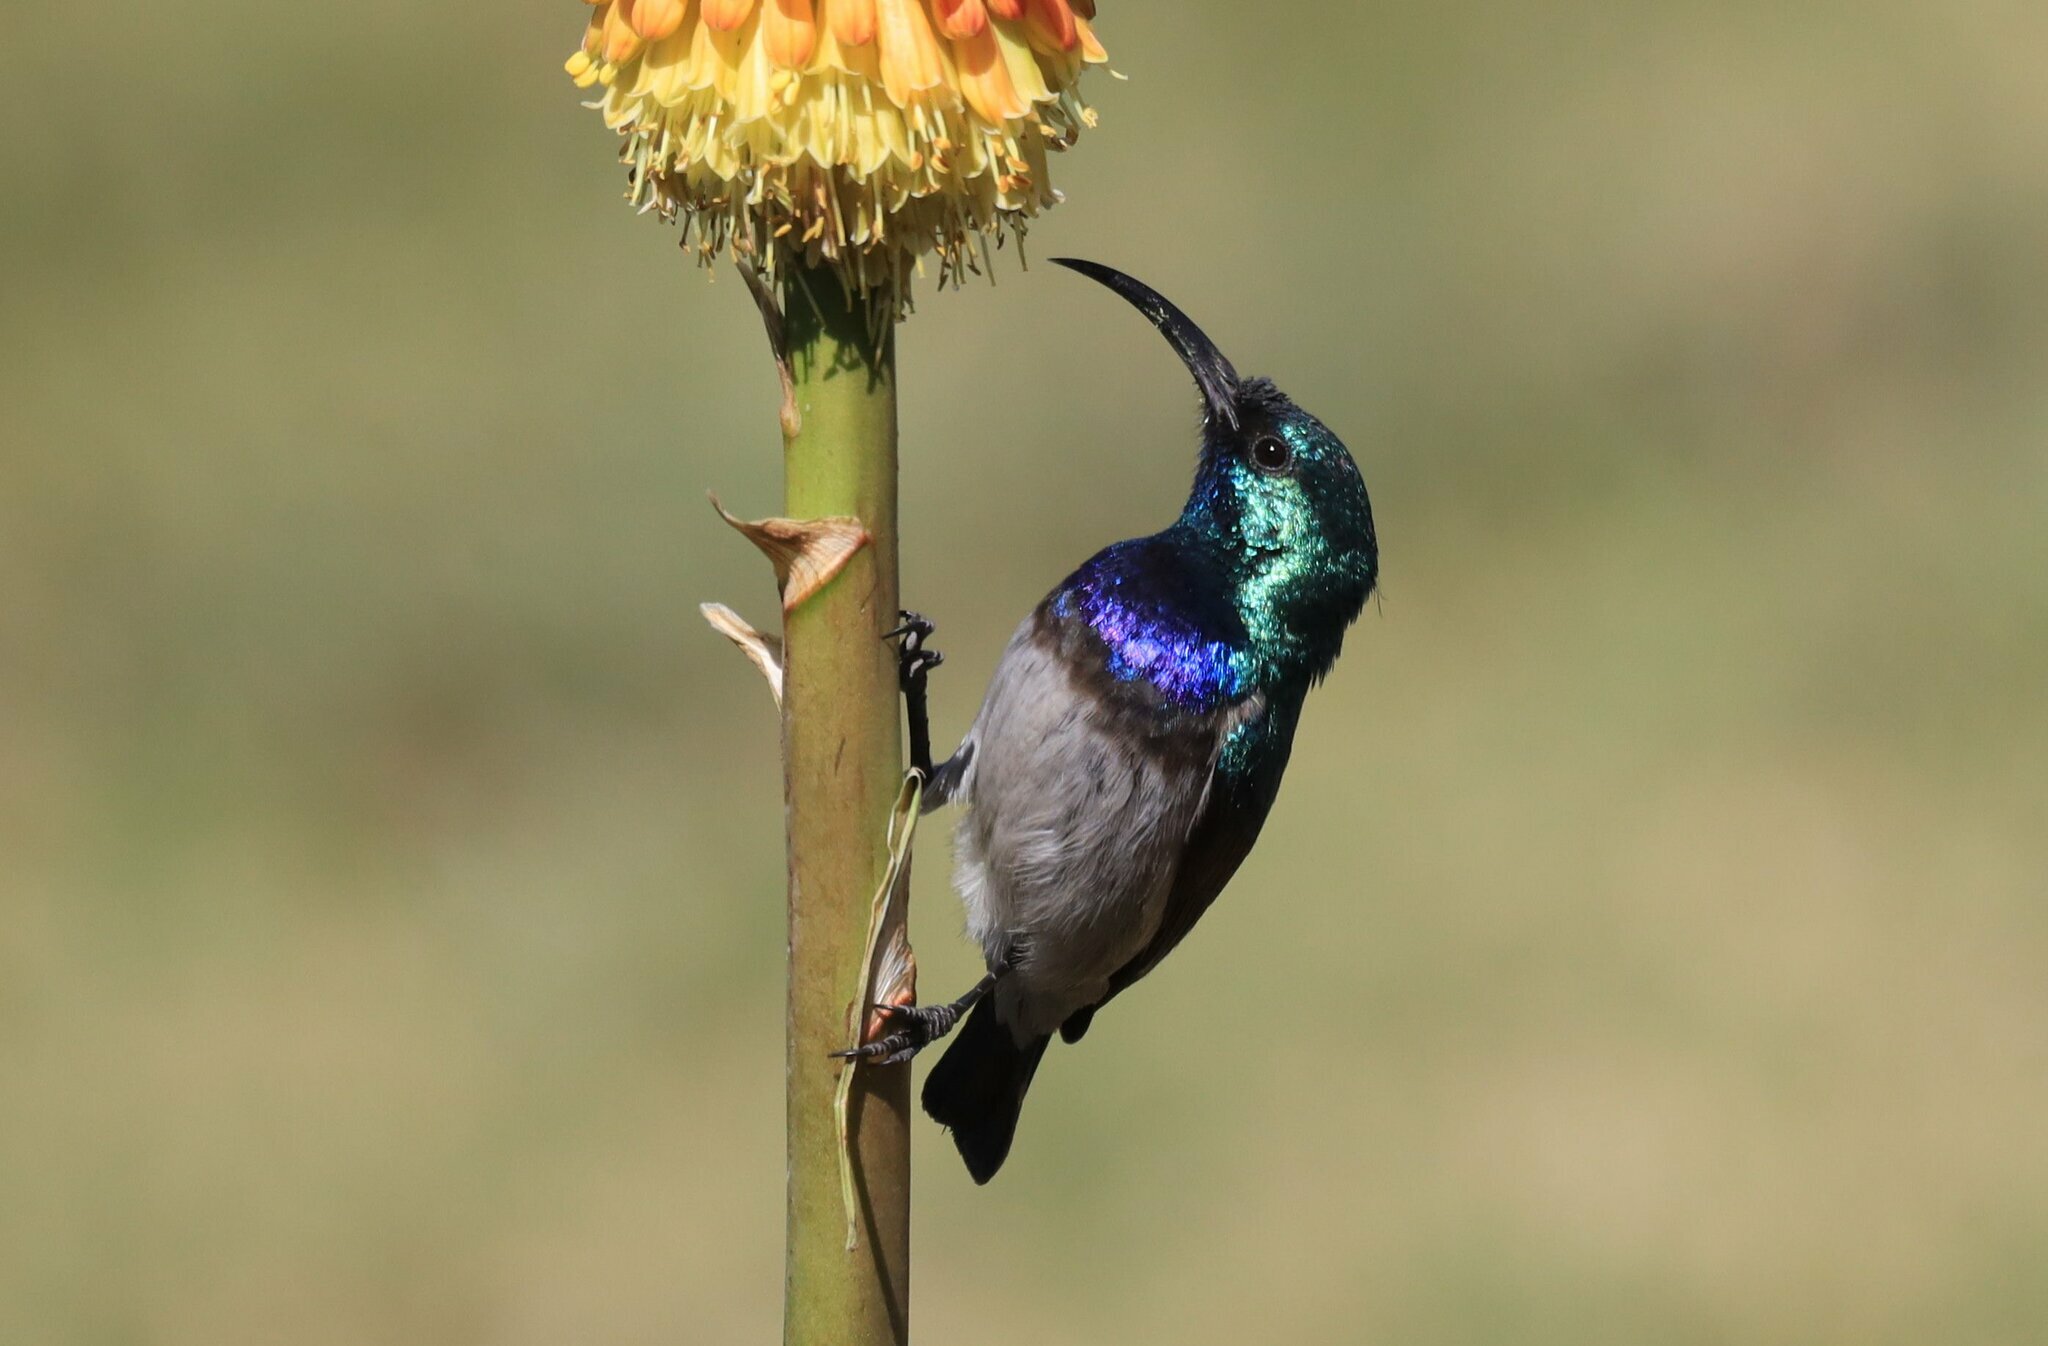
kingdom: Animalia
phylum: Chordata
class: Aves
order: Passeriformes
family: Nectariniidae
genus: Cinnyris
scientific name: Cinnyris talatala
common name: White-bellied sunbird
